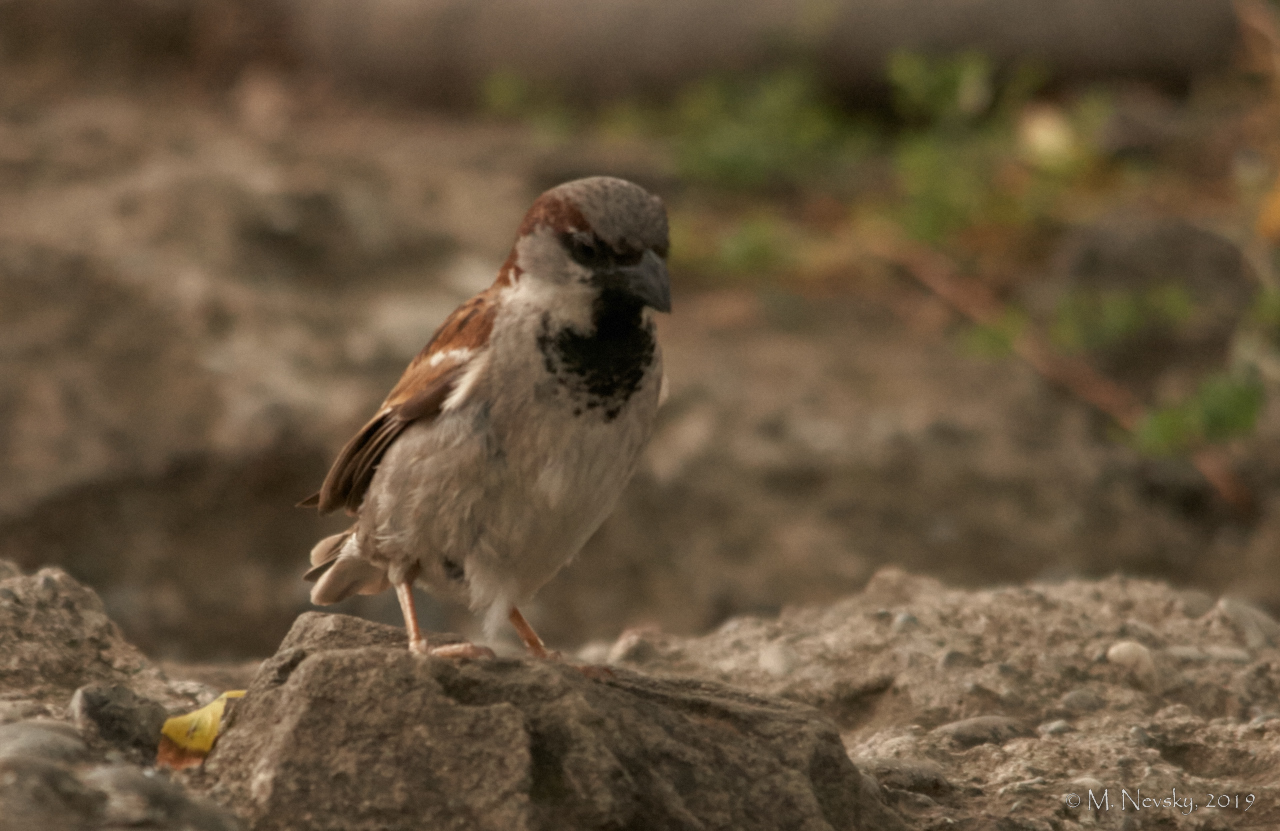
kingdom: Animalia
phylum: Chordata
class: Aves
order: Passeriformes
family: Passeridae
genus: Passer
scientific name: Passer domesticus
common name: House sparrow
